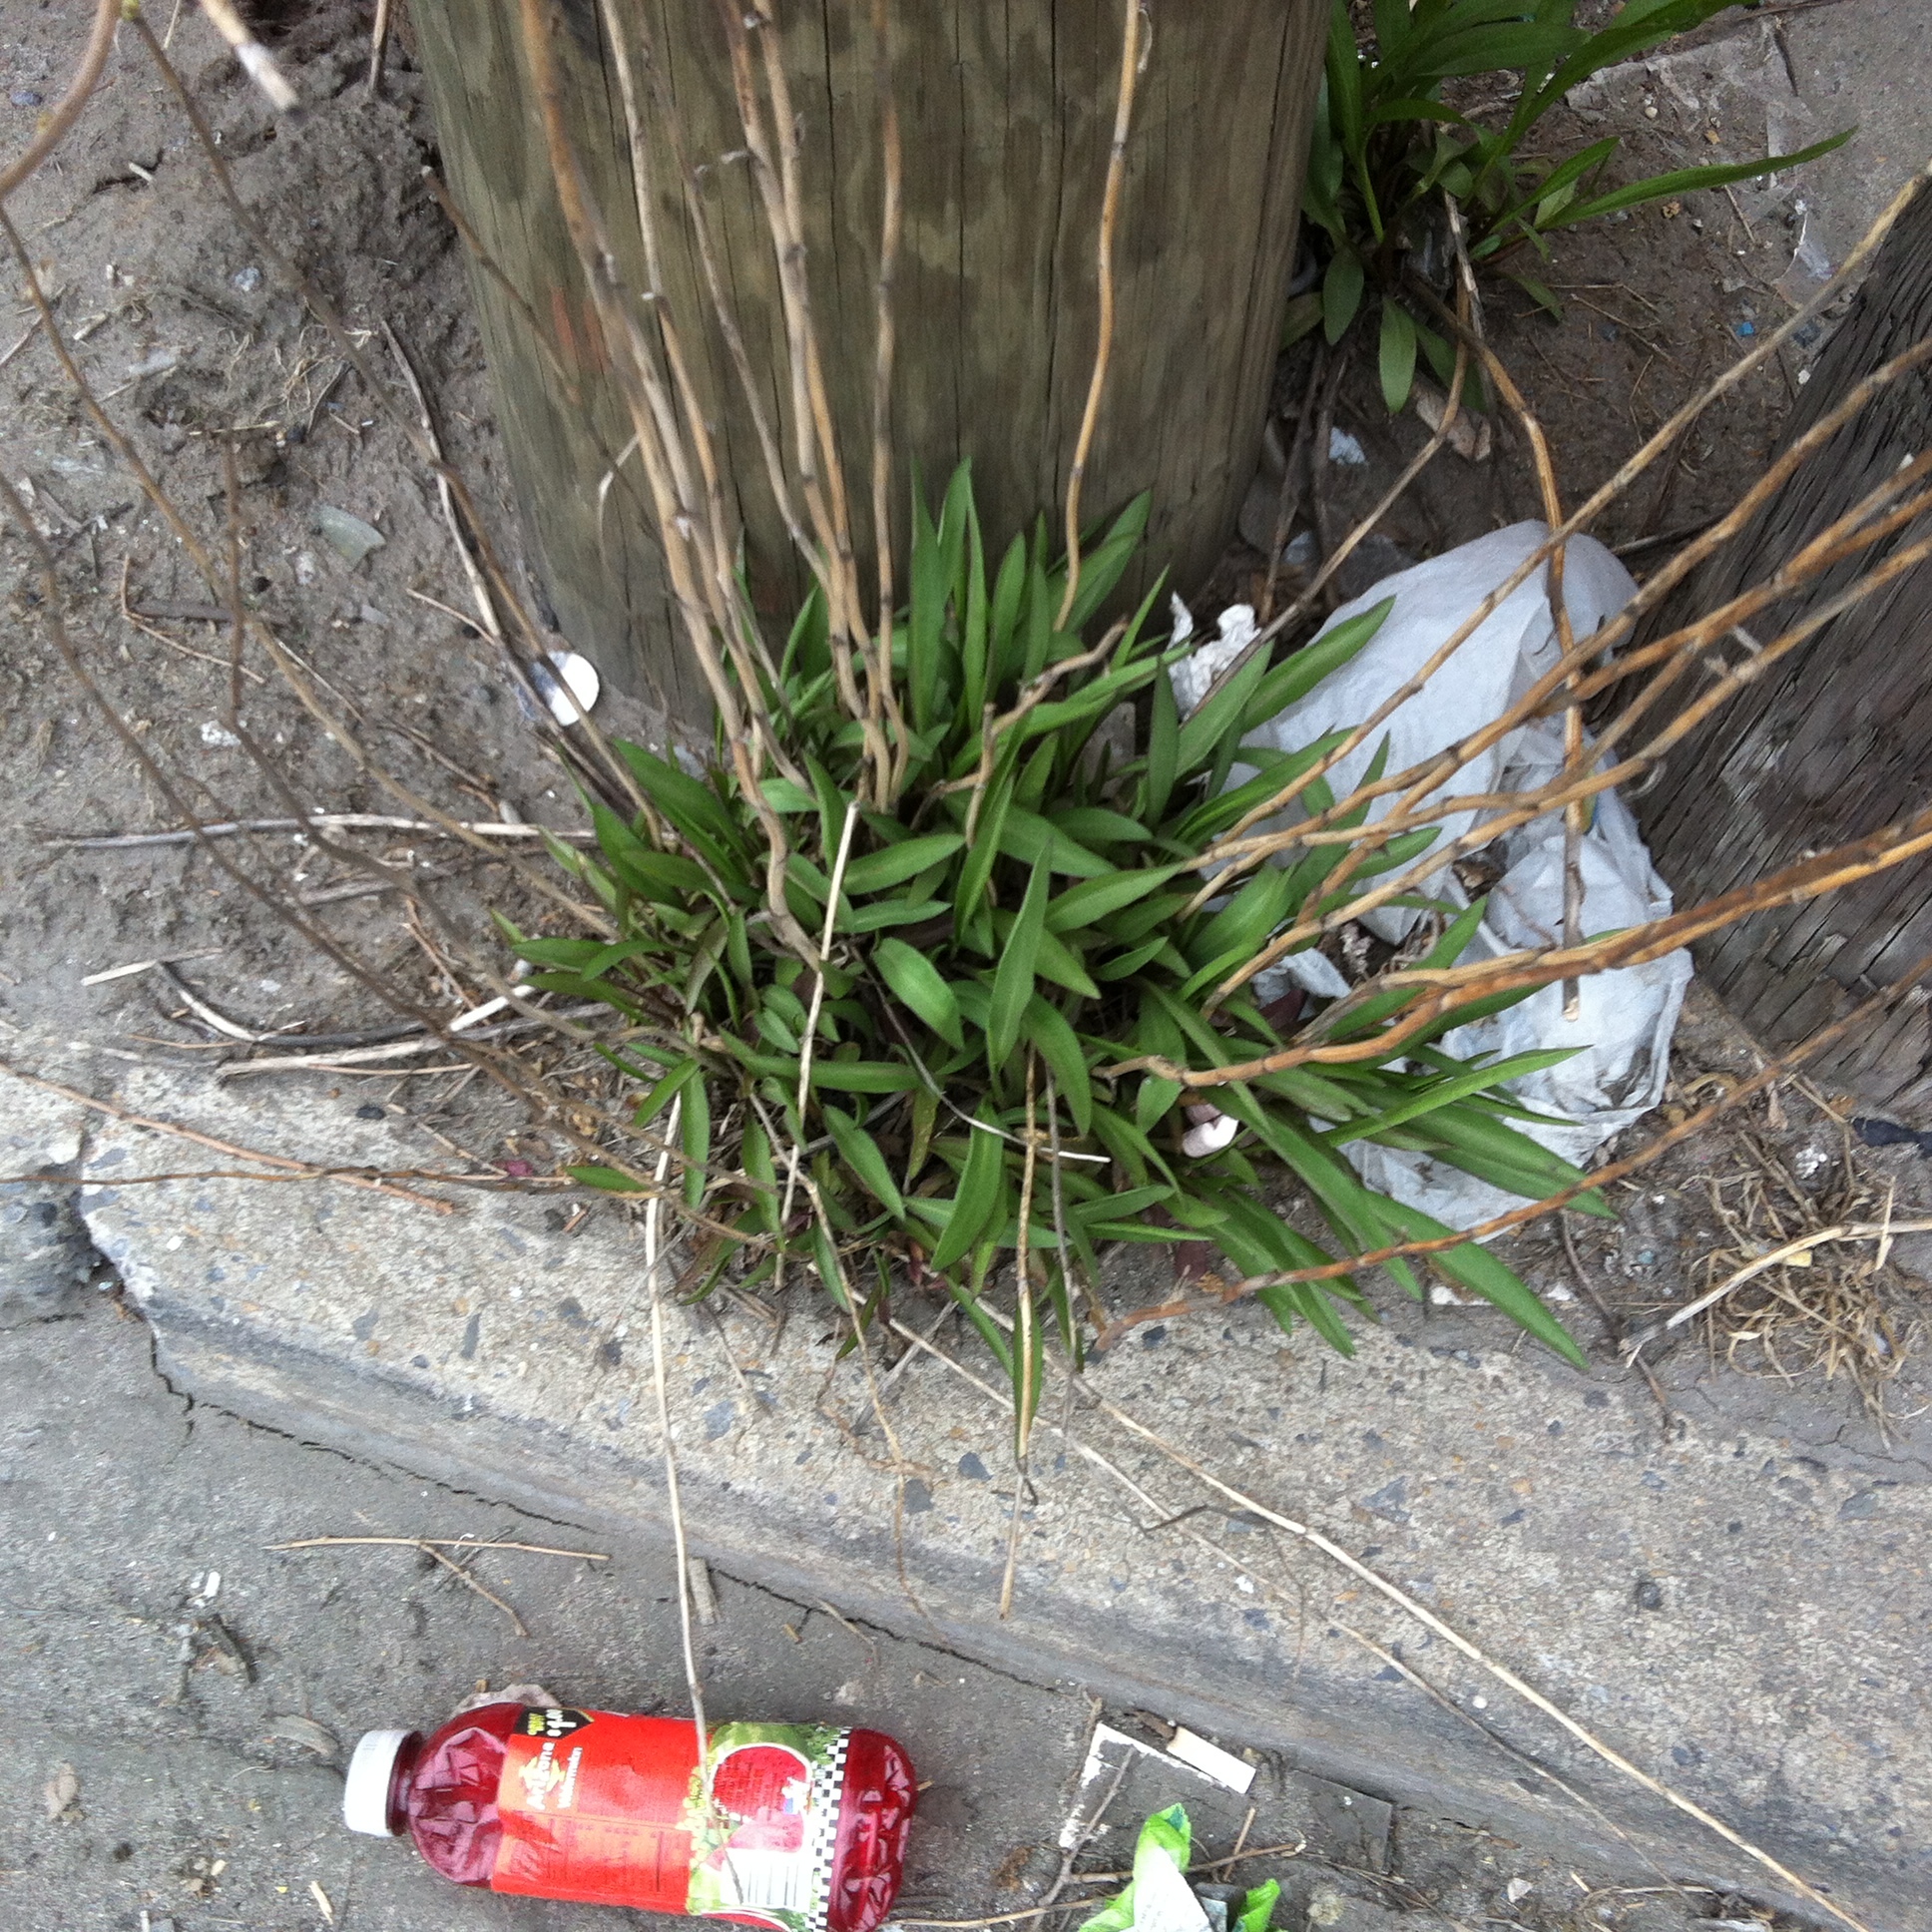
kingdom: Plantae
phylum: Tracheophyta
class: Magnoliopsida
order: Asterales
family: Asteraceae
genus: Solidago
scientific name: Solidago sempervirens
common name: Salt-marsh goldenrod
